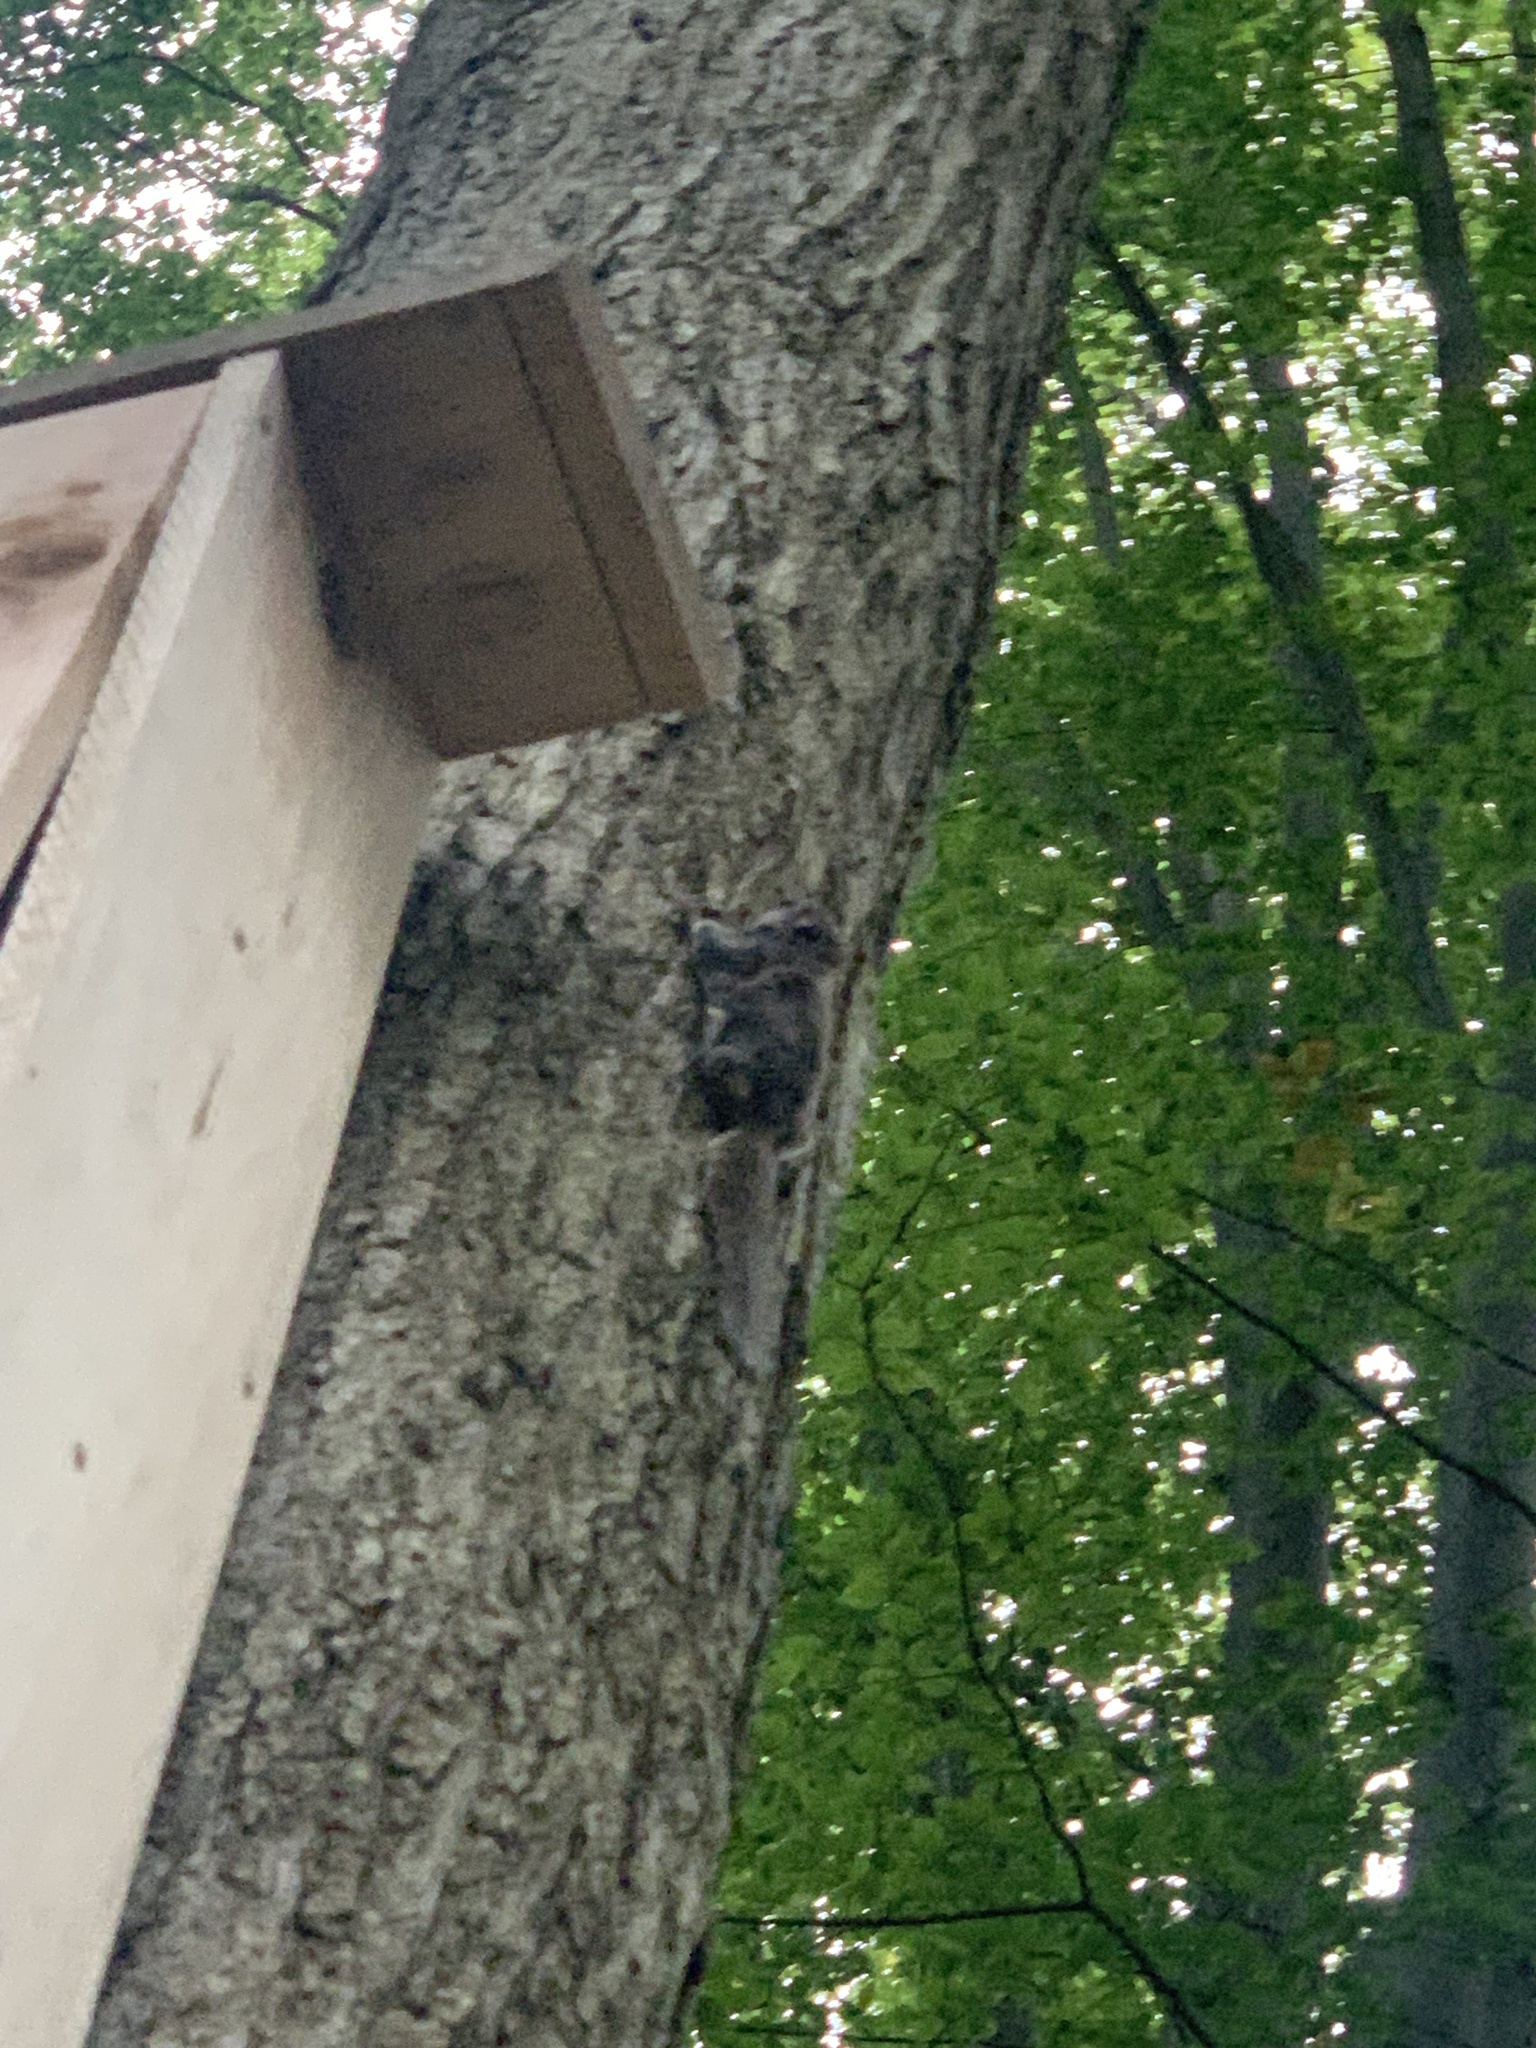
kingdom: Animalia
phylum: Chordata
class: Mammalia
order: Rodentia
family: Sciuridae
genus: Glaucomys
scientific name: Glaucomys volans
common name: Southern flying squirrel
